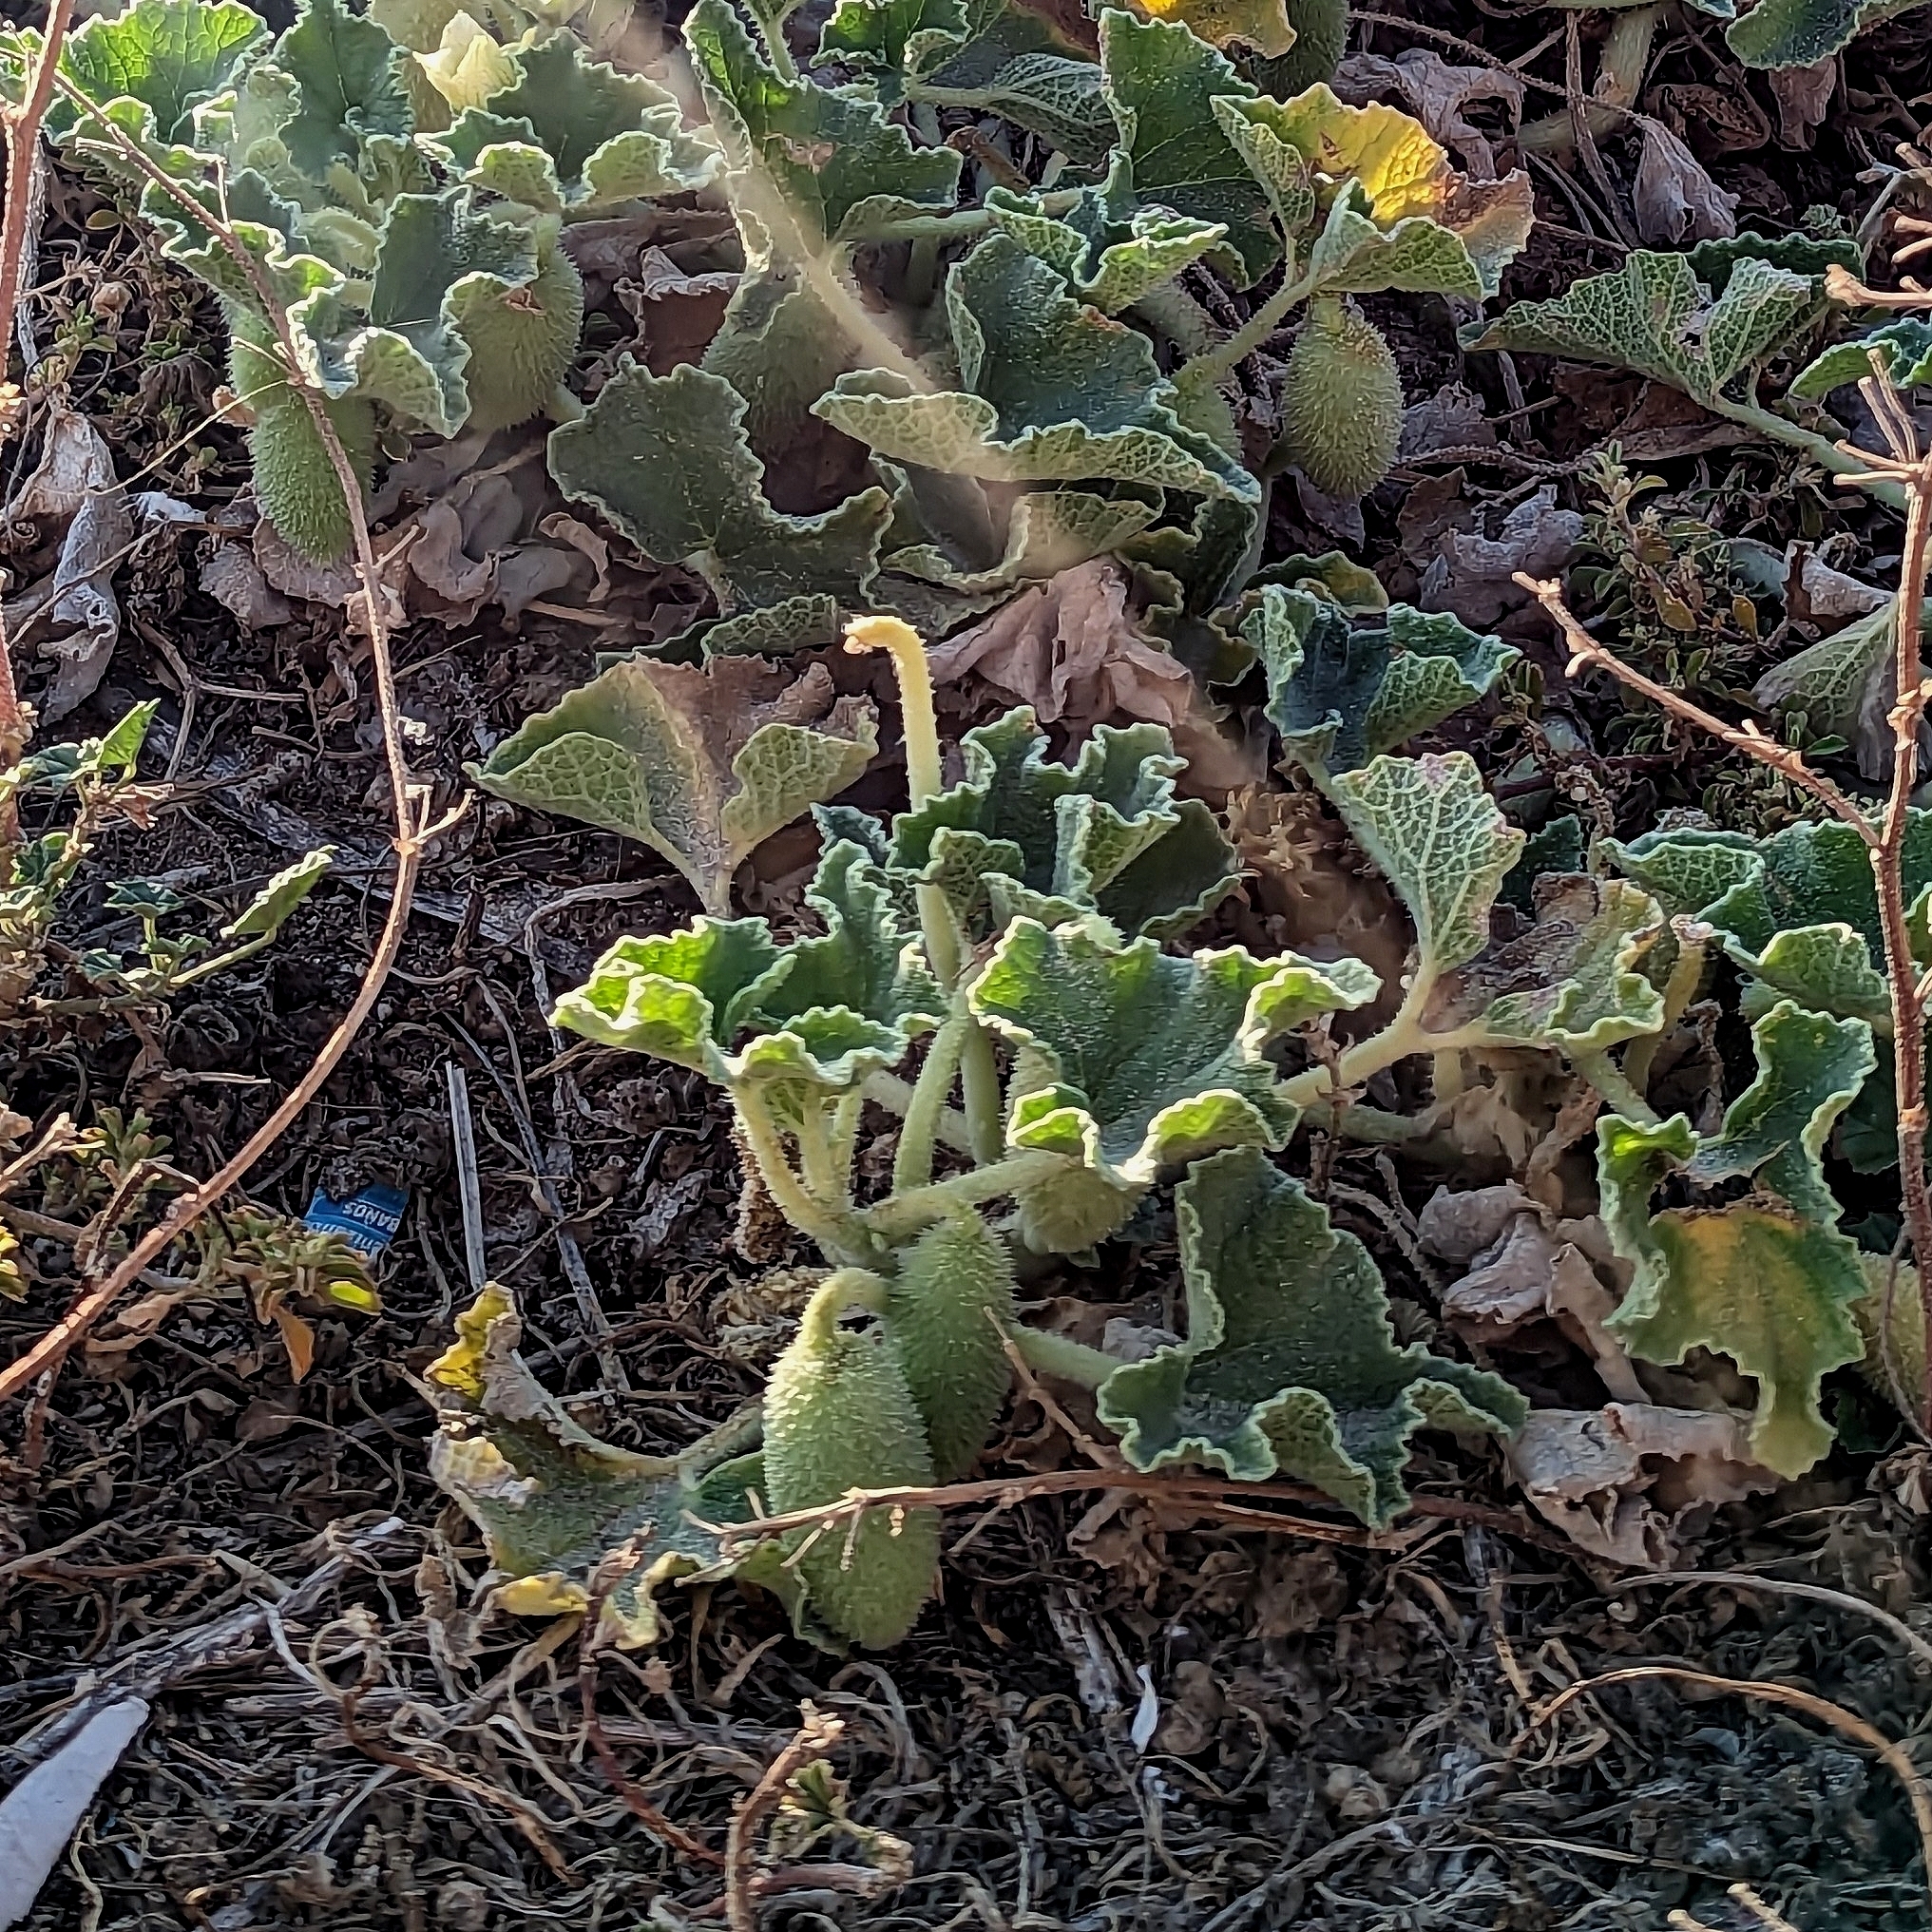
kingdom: Plantae
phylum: Tracheophyta
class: Magnoliopsida
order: Cucurbitales
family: Cucurbitaceae
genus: Ecballium
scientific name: Ecballium elaterium
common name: Squirting cucumber
